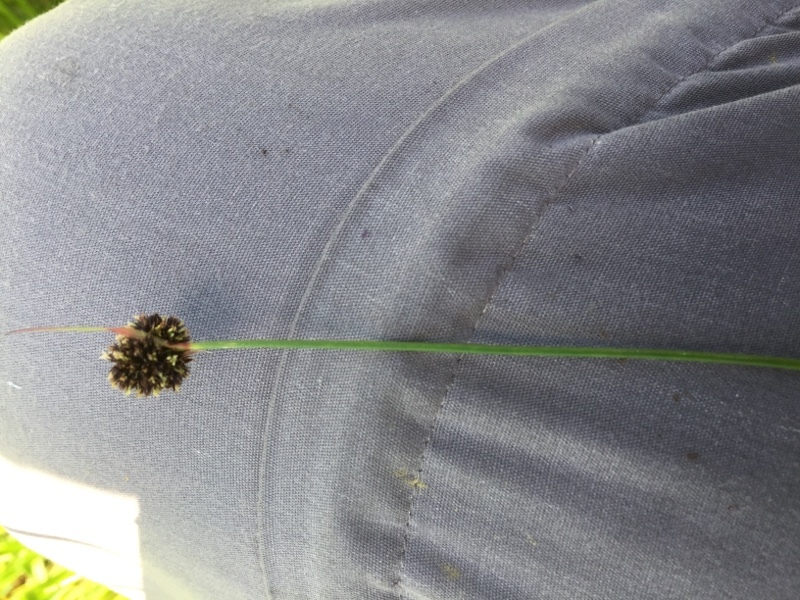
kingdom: Plantae
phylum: Tracheophyta
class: Liliopsida
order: Poales
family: Cyperaceae
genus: Scirpoides
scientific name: Scirpoides holoschoenus
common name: Round-headed club-rush
